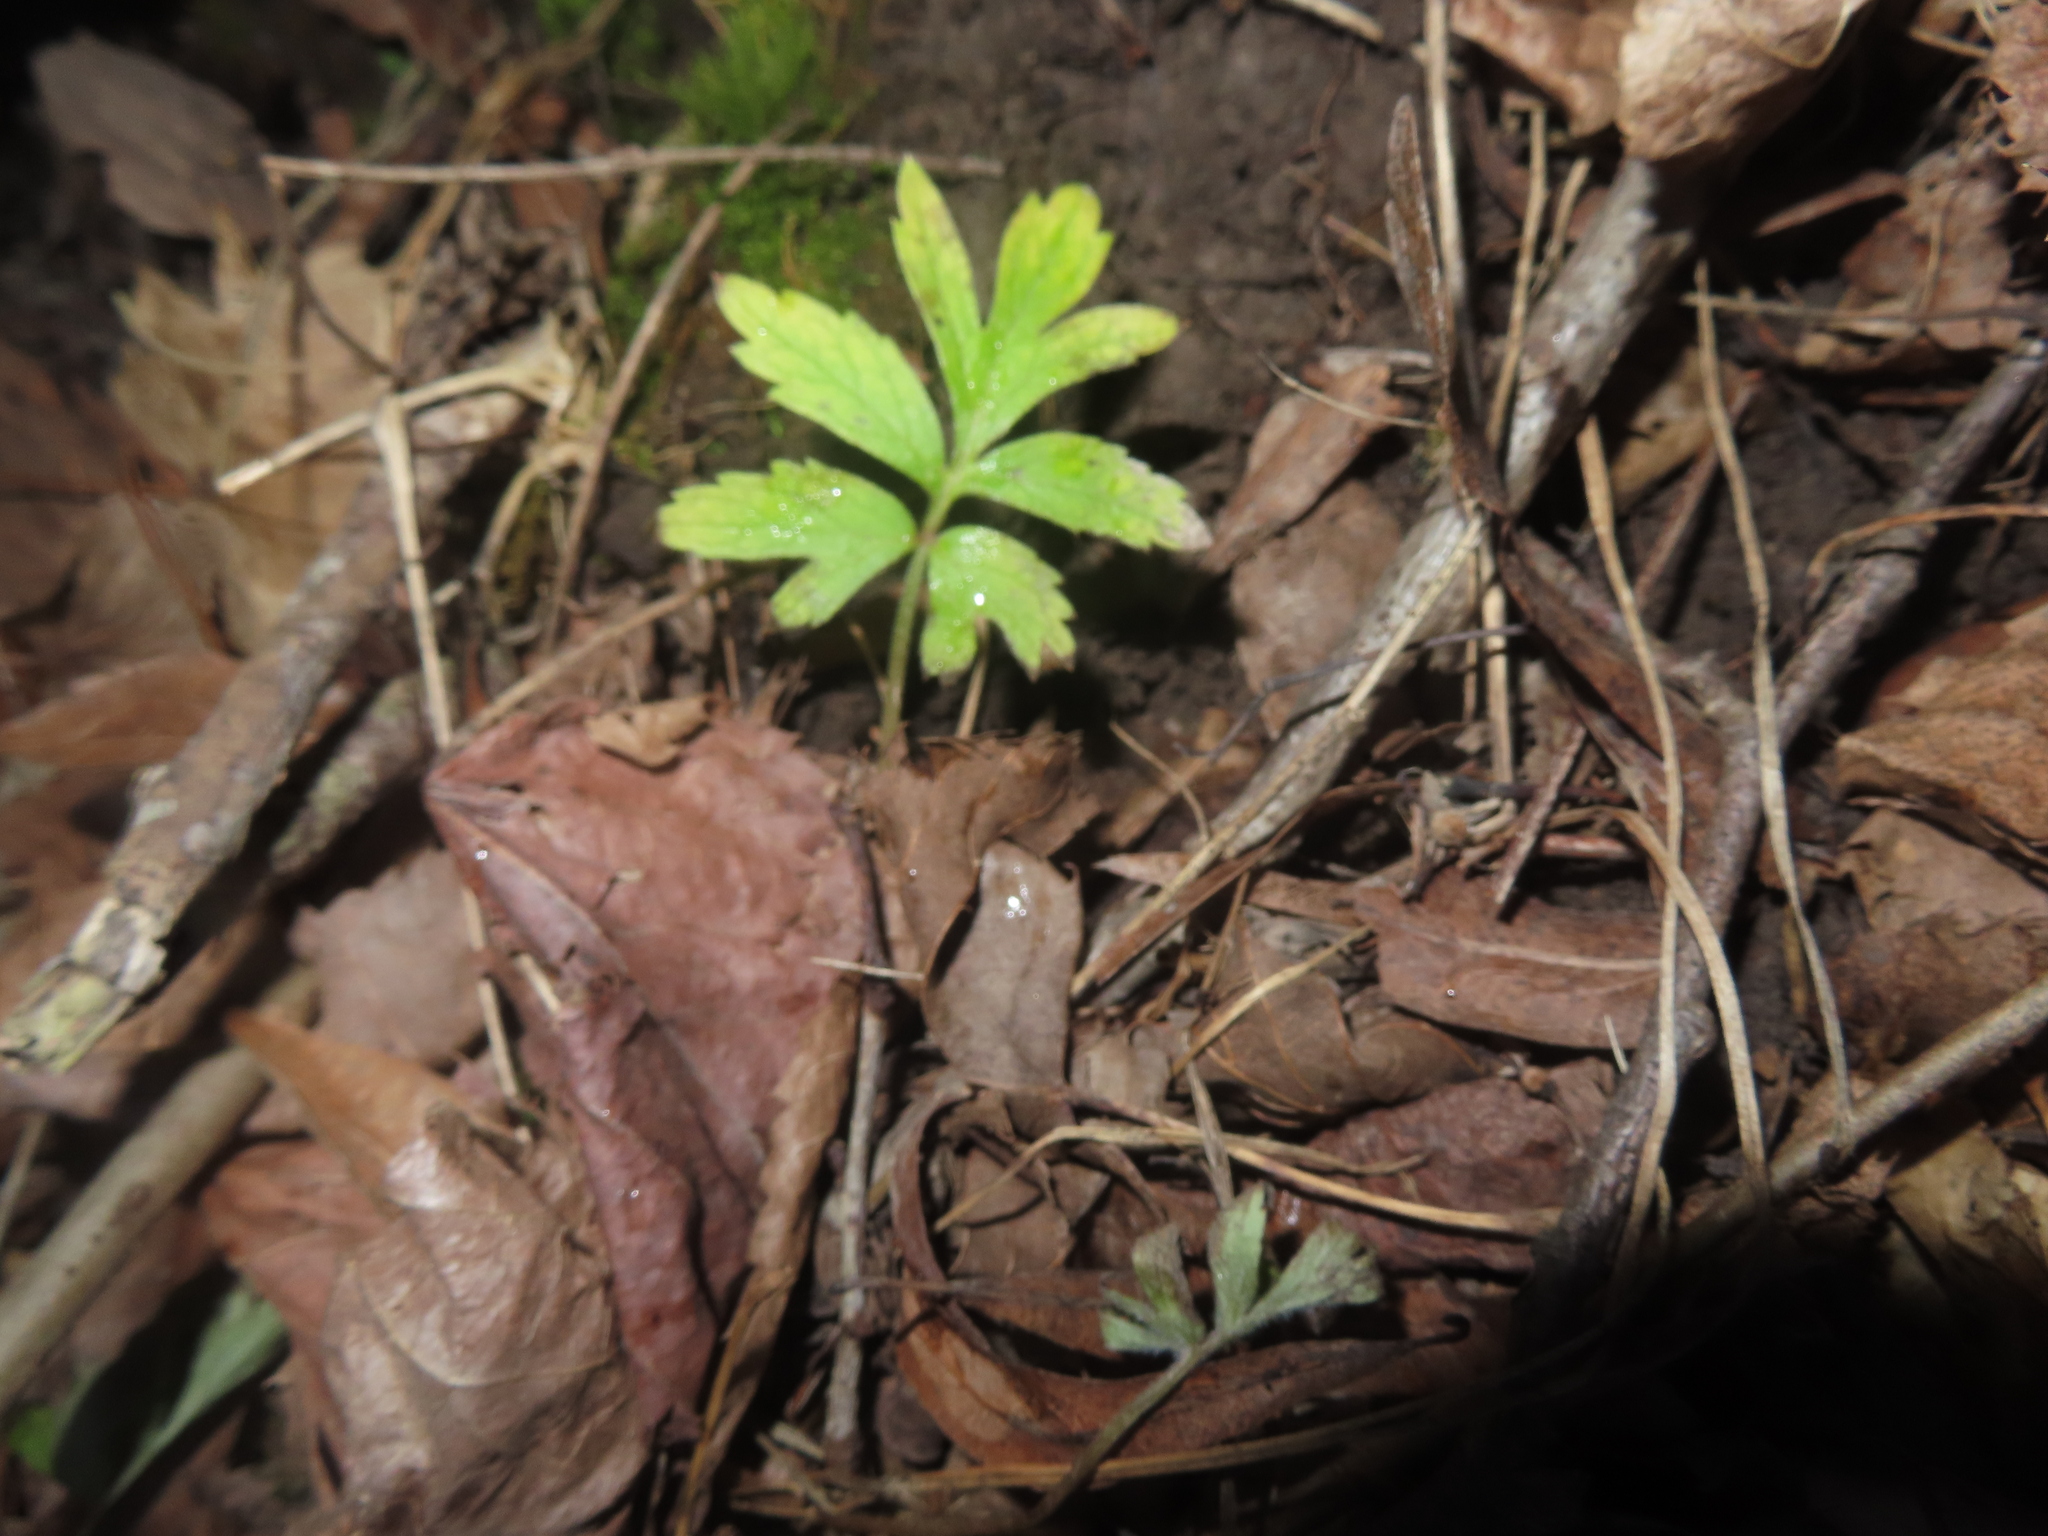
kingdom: Plantae
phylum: Tracheophyta
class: Magnoliopsida
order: Boraginales
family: Hydrophyllaceae
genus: Hydrophyllum
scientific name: Hydrophyllum virginianum
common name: Virginia waterleaf
